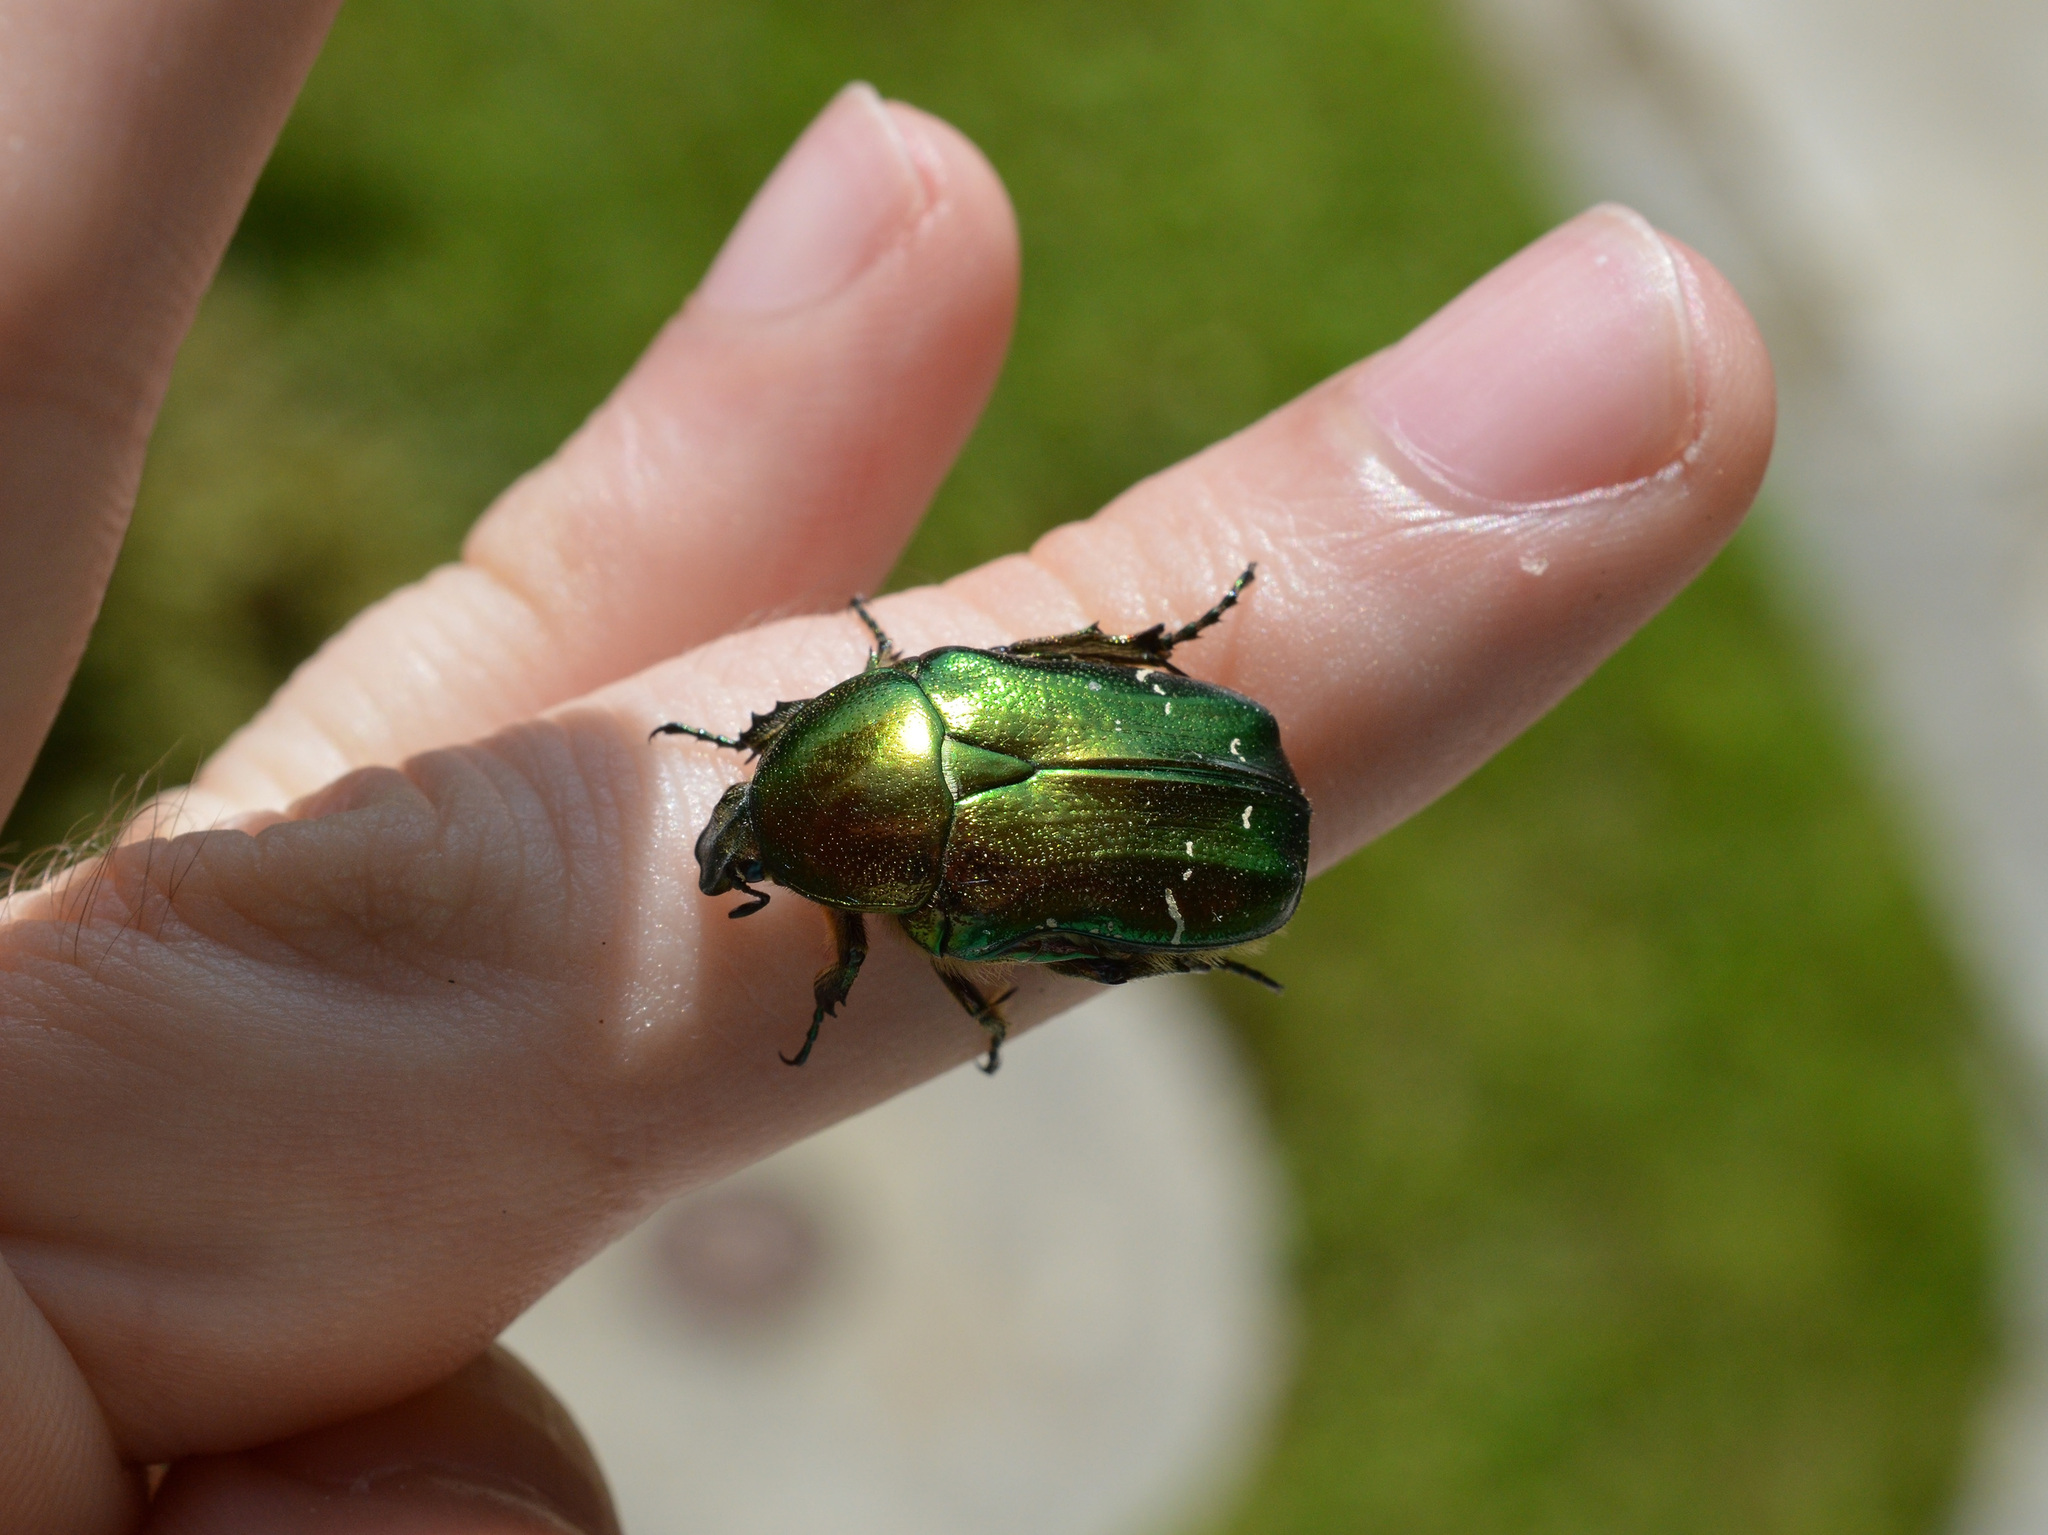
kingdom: Animalia
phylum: Arthropoda
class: Insecta
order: Coleoptera
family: Scarabaeidae
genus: Cetonia
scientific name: Cetonia aurata
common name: Rose chafer
